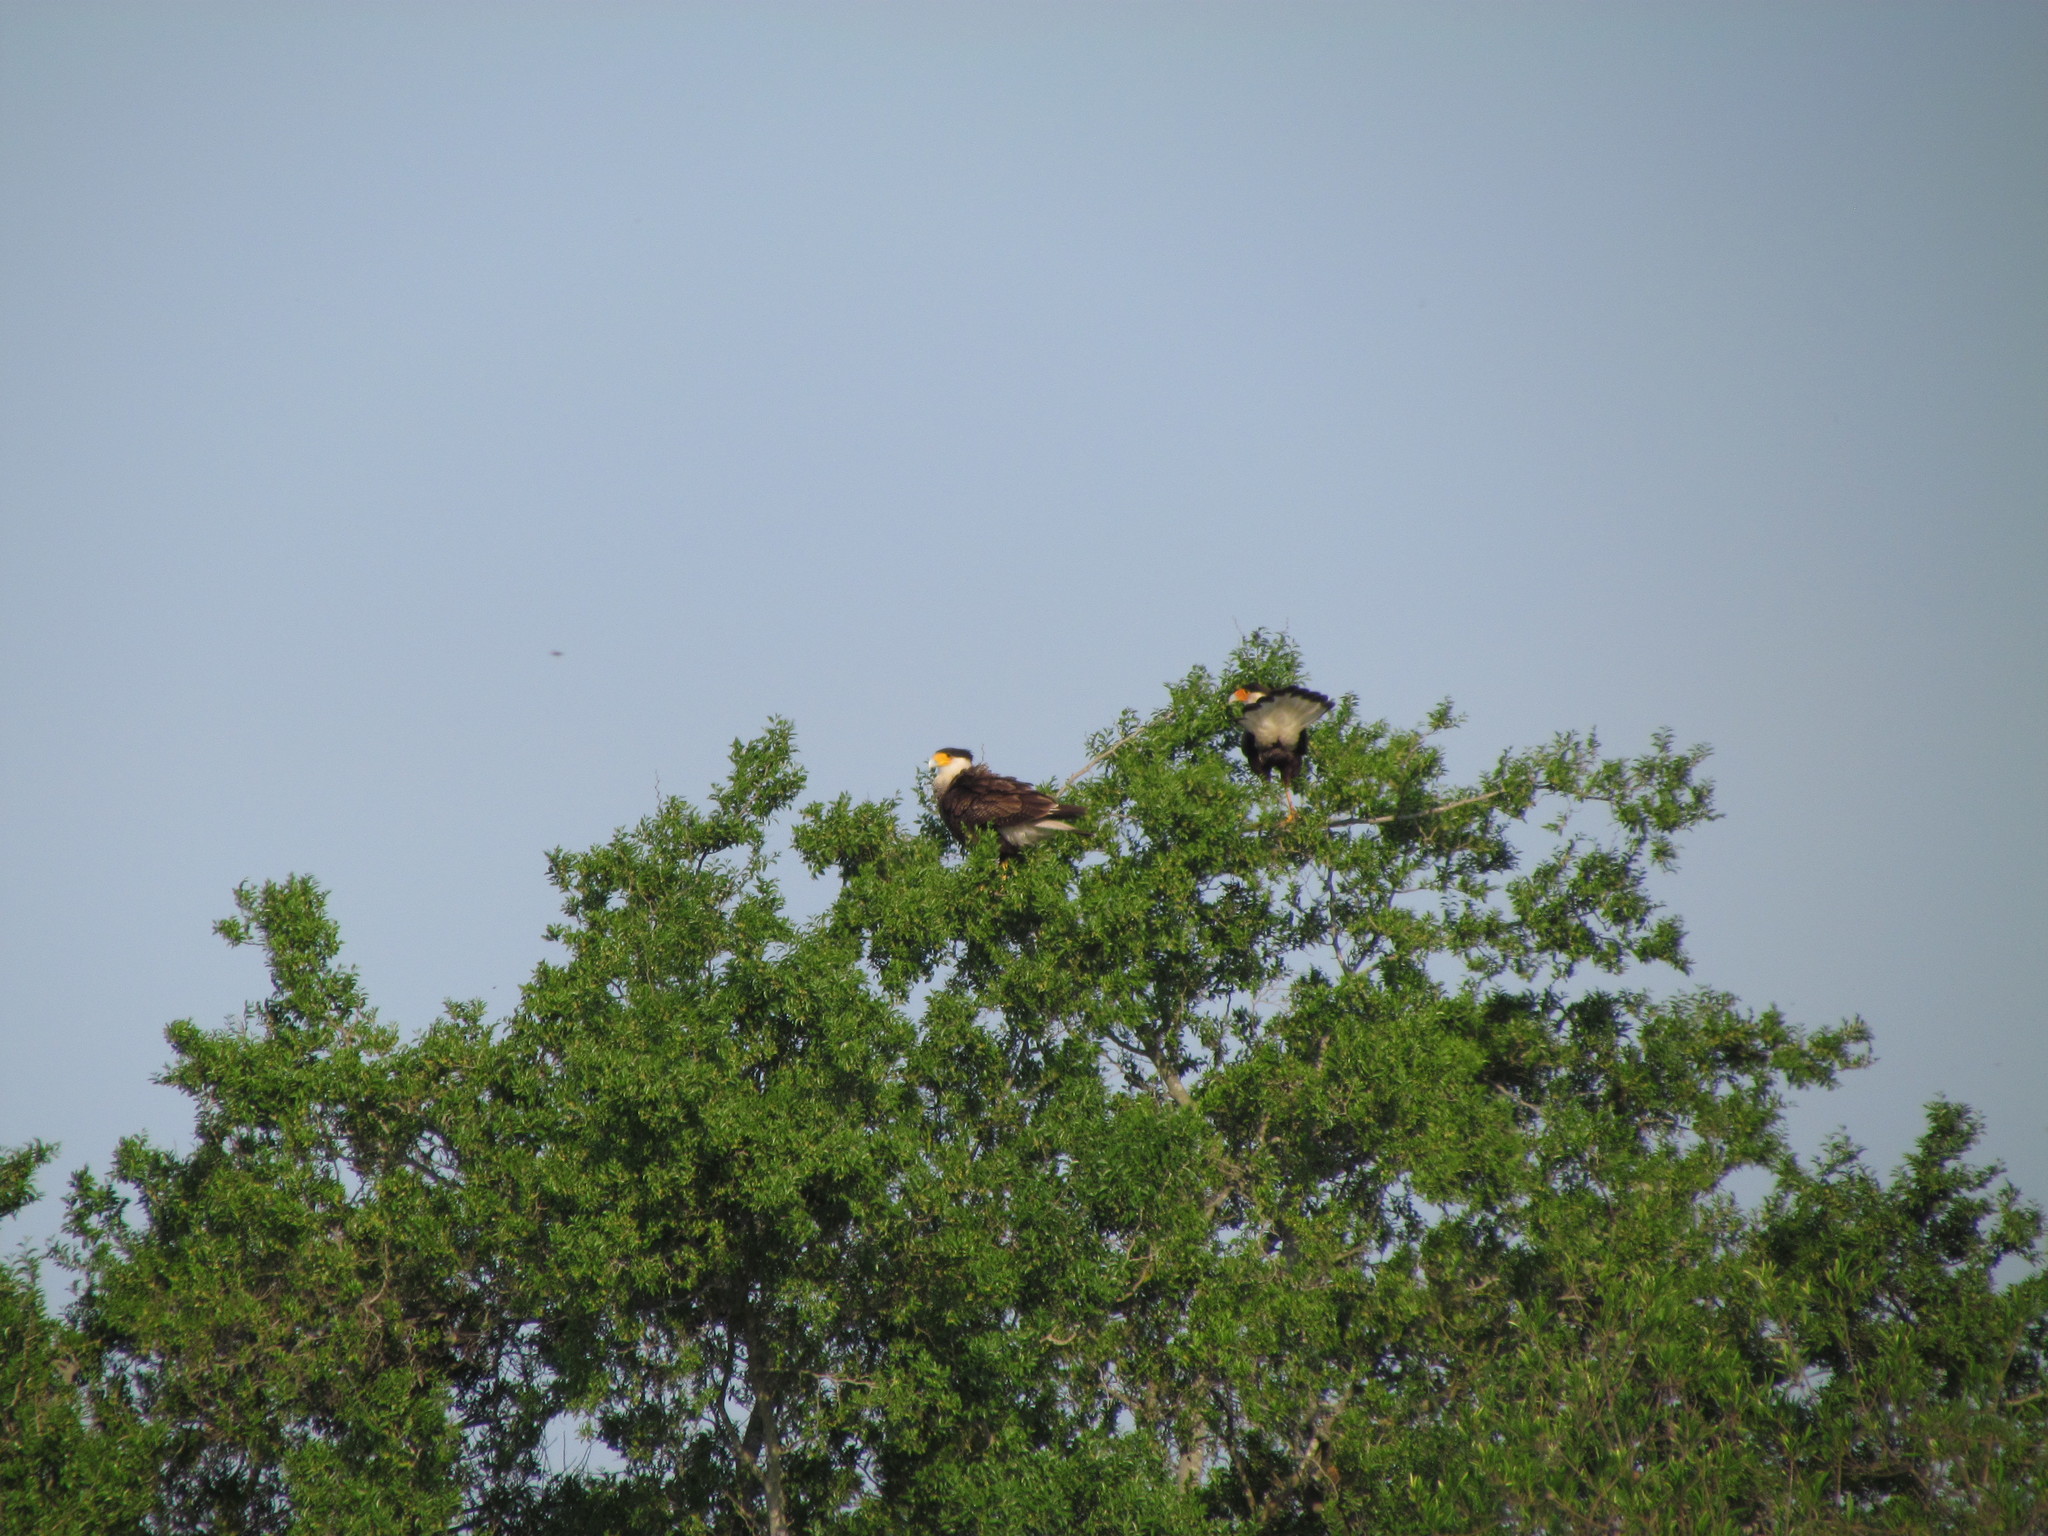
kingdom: Animalia
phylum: Chordata
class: Aves
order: Falconiformes
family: Falconidae
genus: Caracara
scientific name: Caracara plancus
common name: Southern caracara
